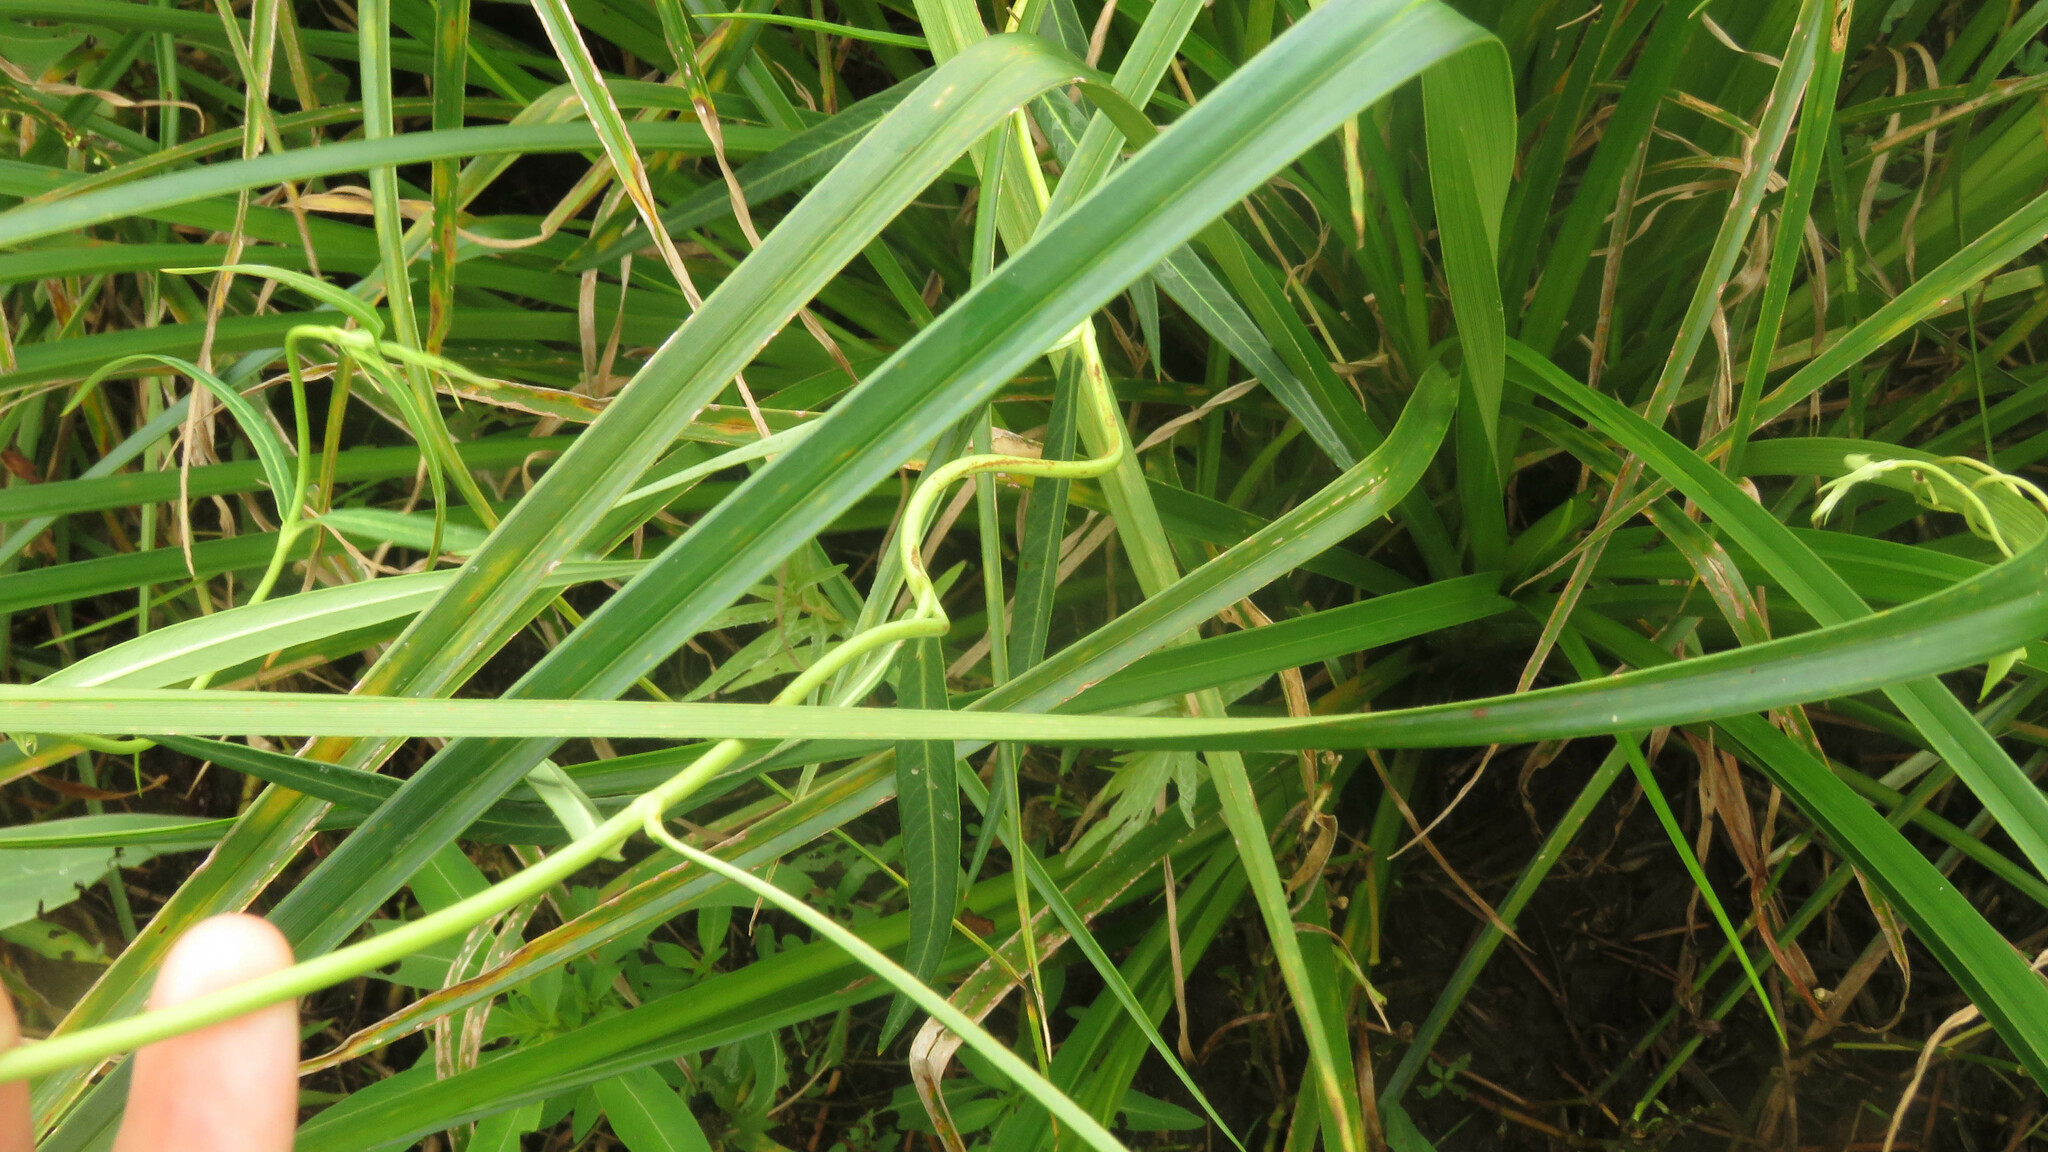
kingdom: Plantae
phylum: Tracheophyta
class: Magnoliopsida
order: Gentianales
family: Apocynaceae
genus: Rhabdadenia
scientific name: Rhabdadenia ragonesei
